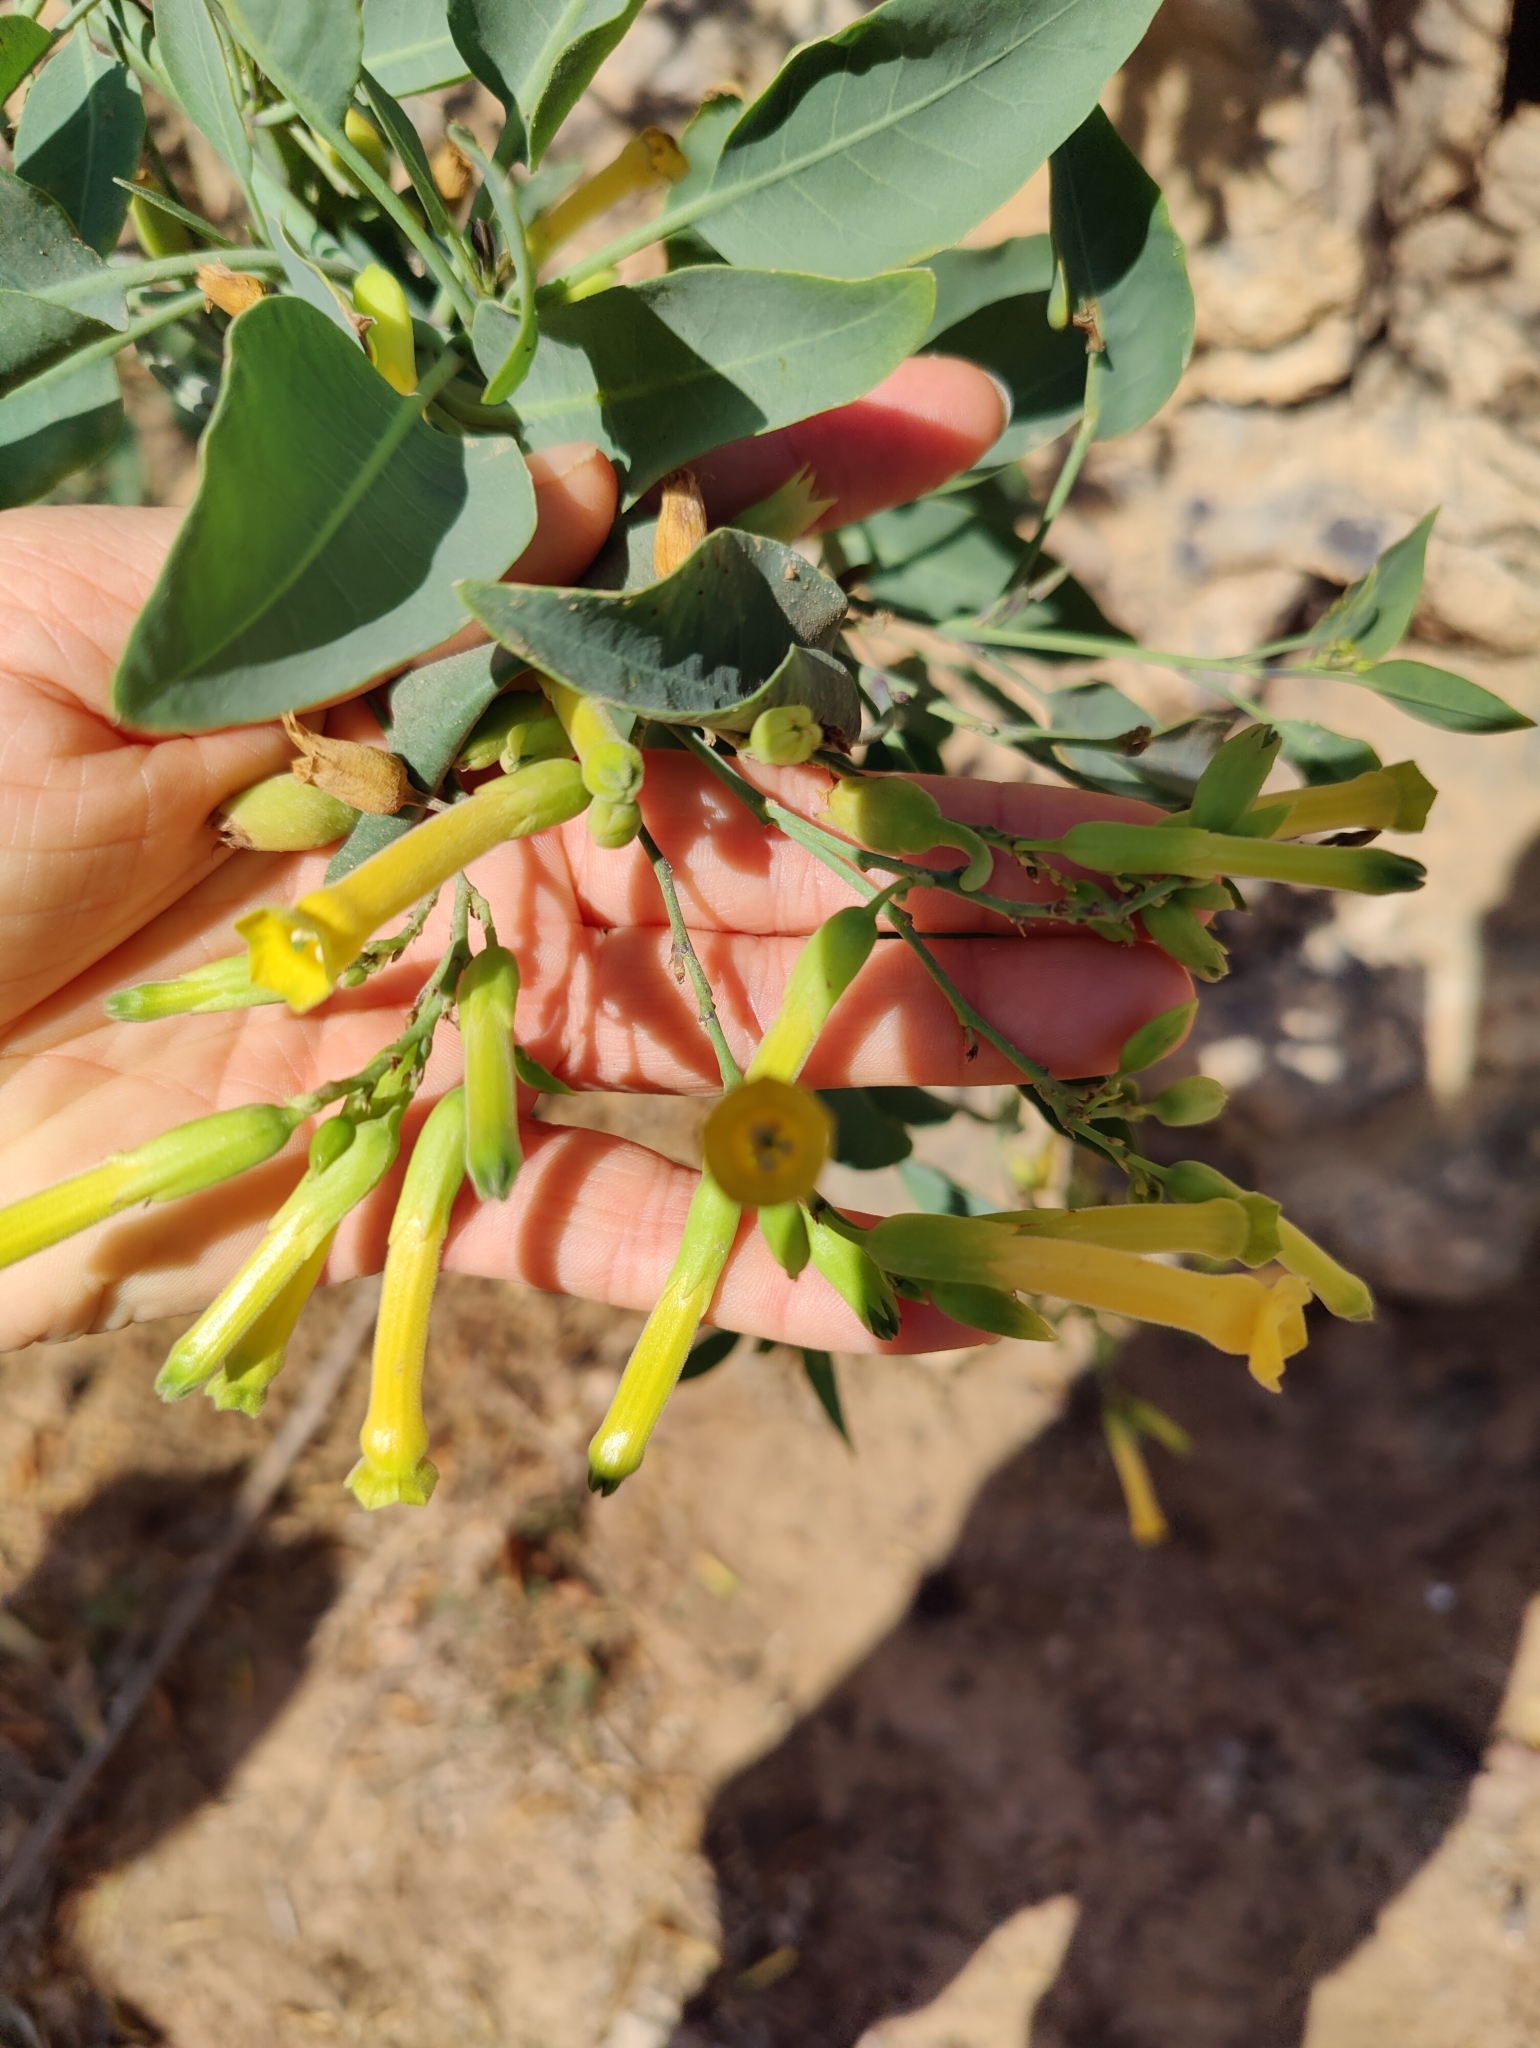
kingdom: Plantae
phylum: Tracheophyta
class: Magnoliopsida
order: Solanales
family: Solanaceae
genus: Nicotiana
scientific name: Nicotiana glauca
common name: Tree tobacco
